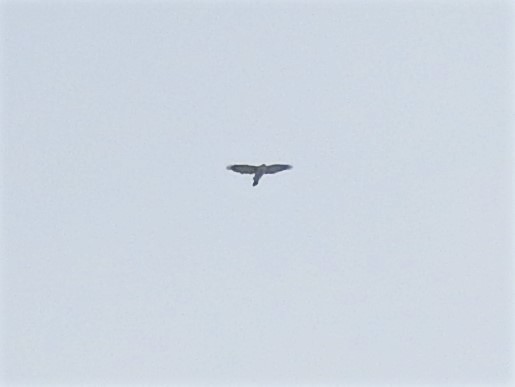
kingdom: Animalia
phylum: Chordata
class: Aves
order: Accipitriformes
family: Accipitridae
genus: Accipiter
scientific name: Accipiter gentilis
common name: Northern goshawk
